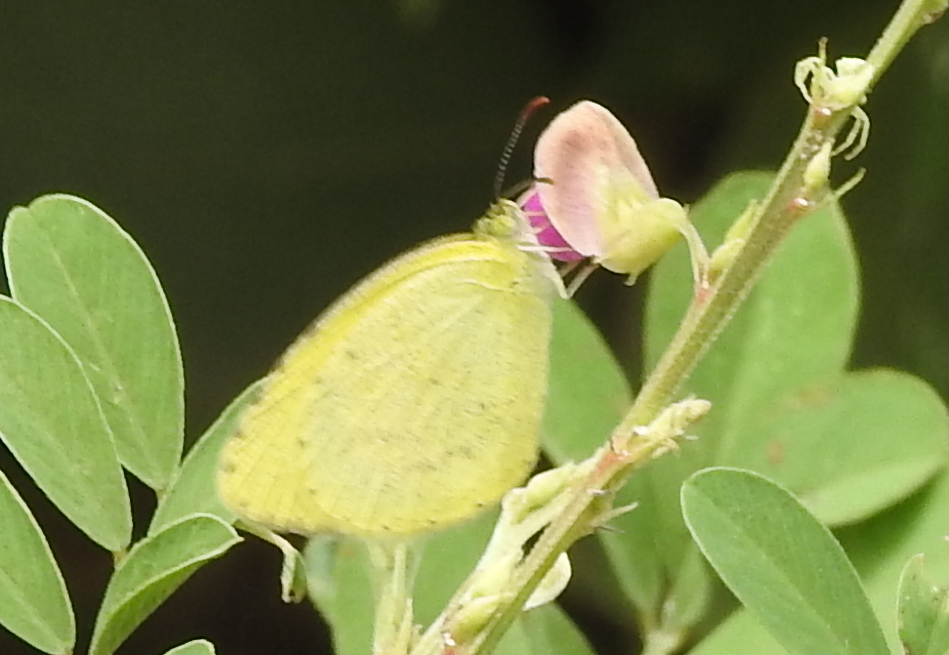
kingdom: Animalia
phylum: Arthropoda
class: Insecta
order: Lepidoptera
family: Pieridae
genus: Eurema
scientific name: Eurema brigitta
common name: Small grass yellow
